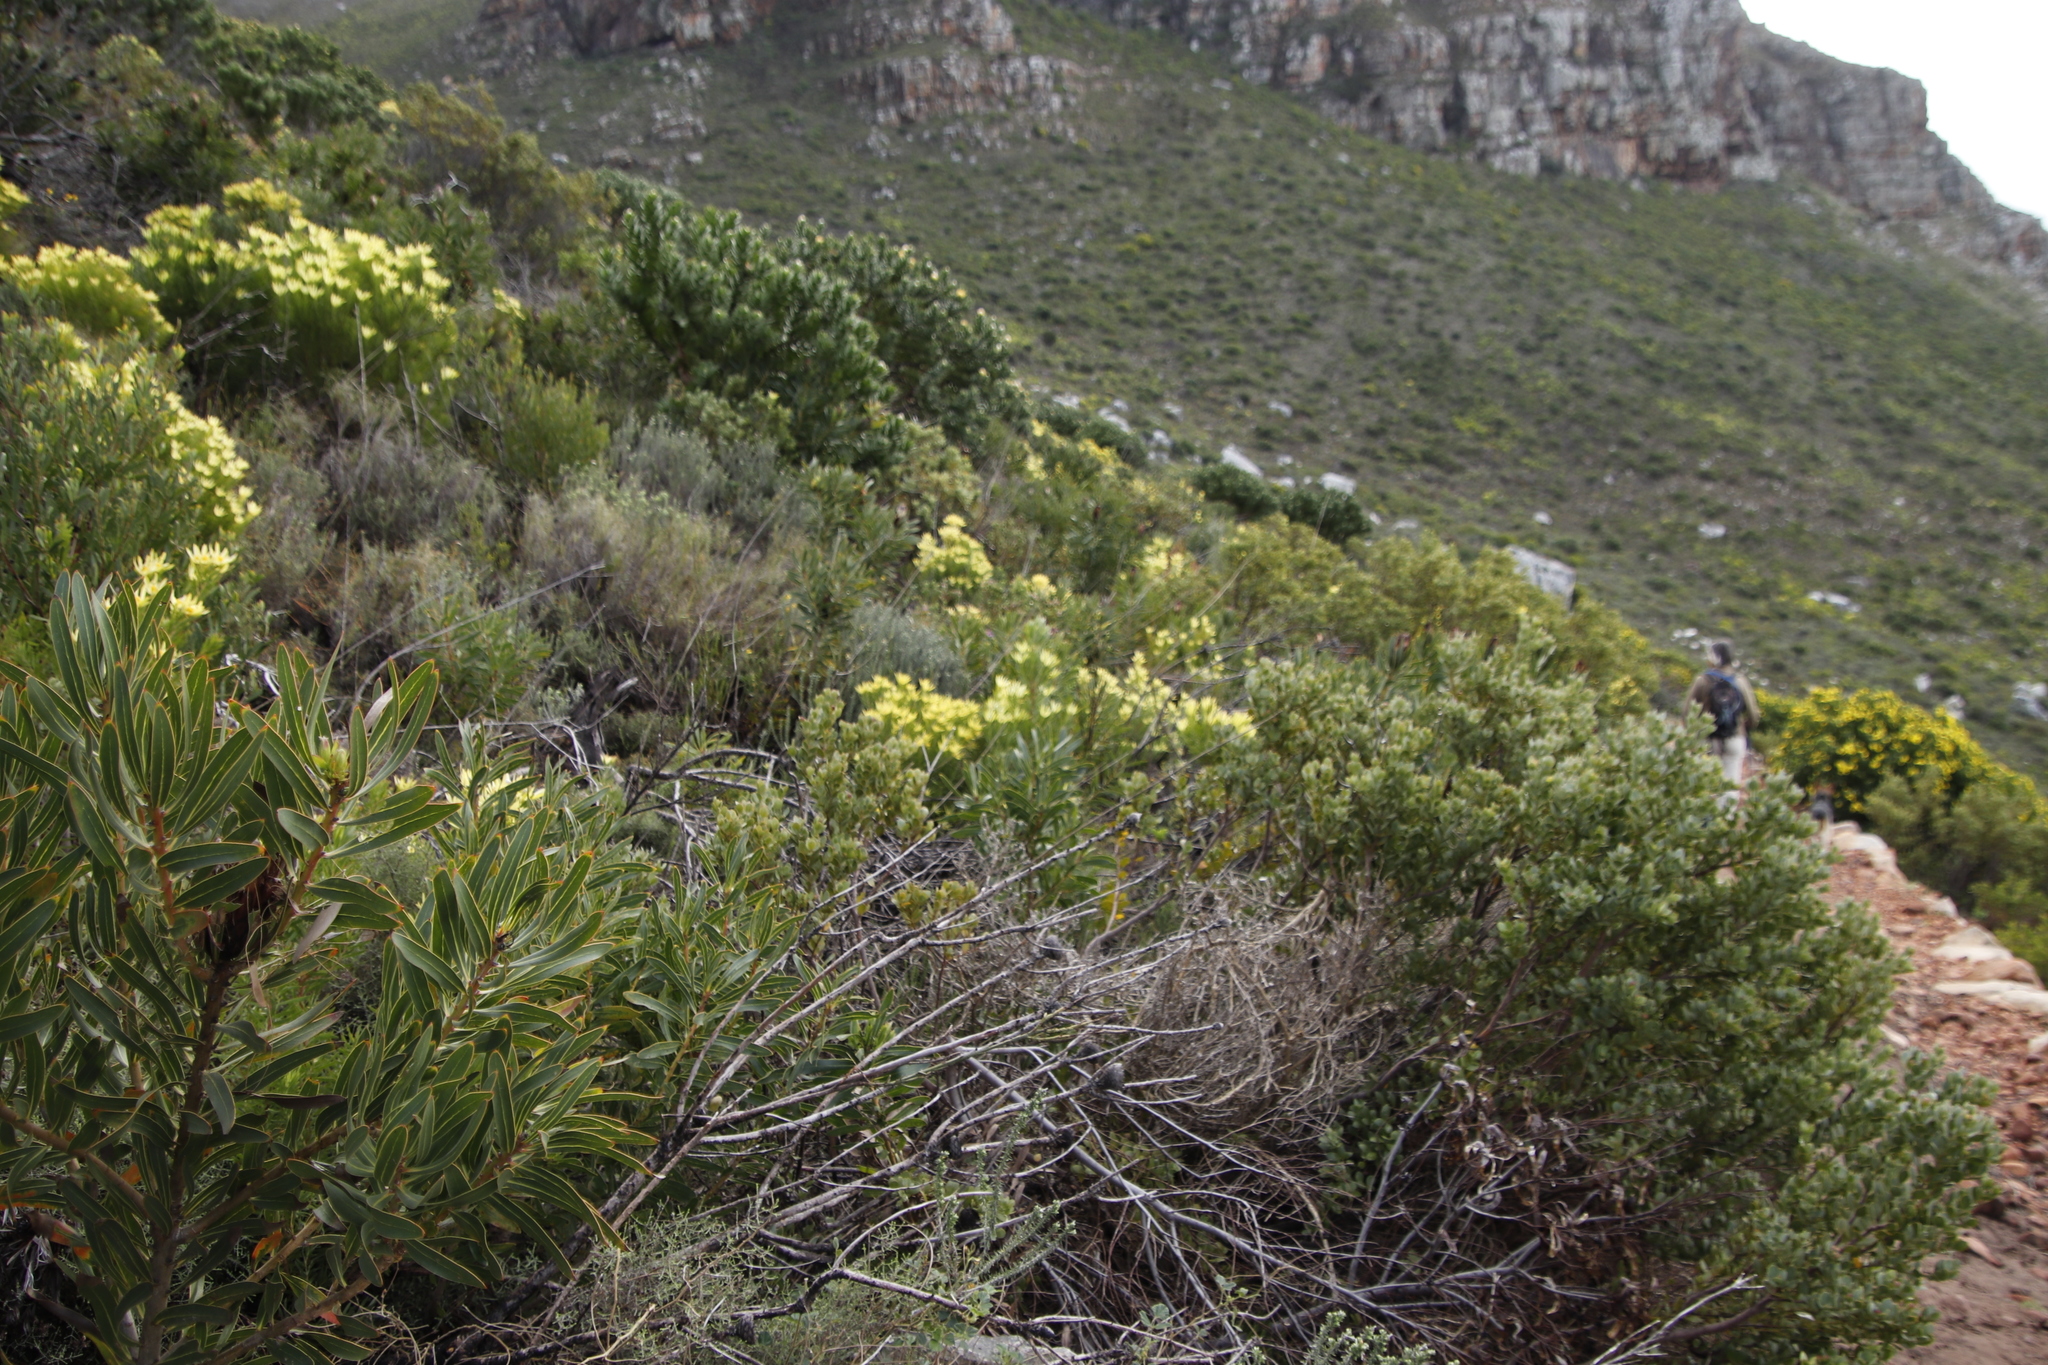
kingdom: Plantae
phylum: Tracheophyta
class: Magnoliopsida
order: Proteales
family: Proteaceae
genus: Leucospermum
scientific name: Leucospermum conocarpodendron
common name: Tree pincushion
